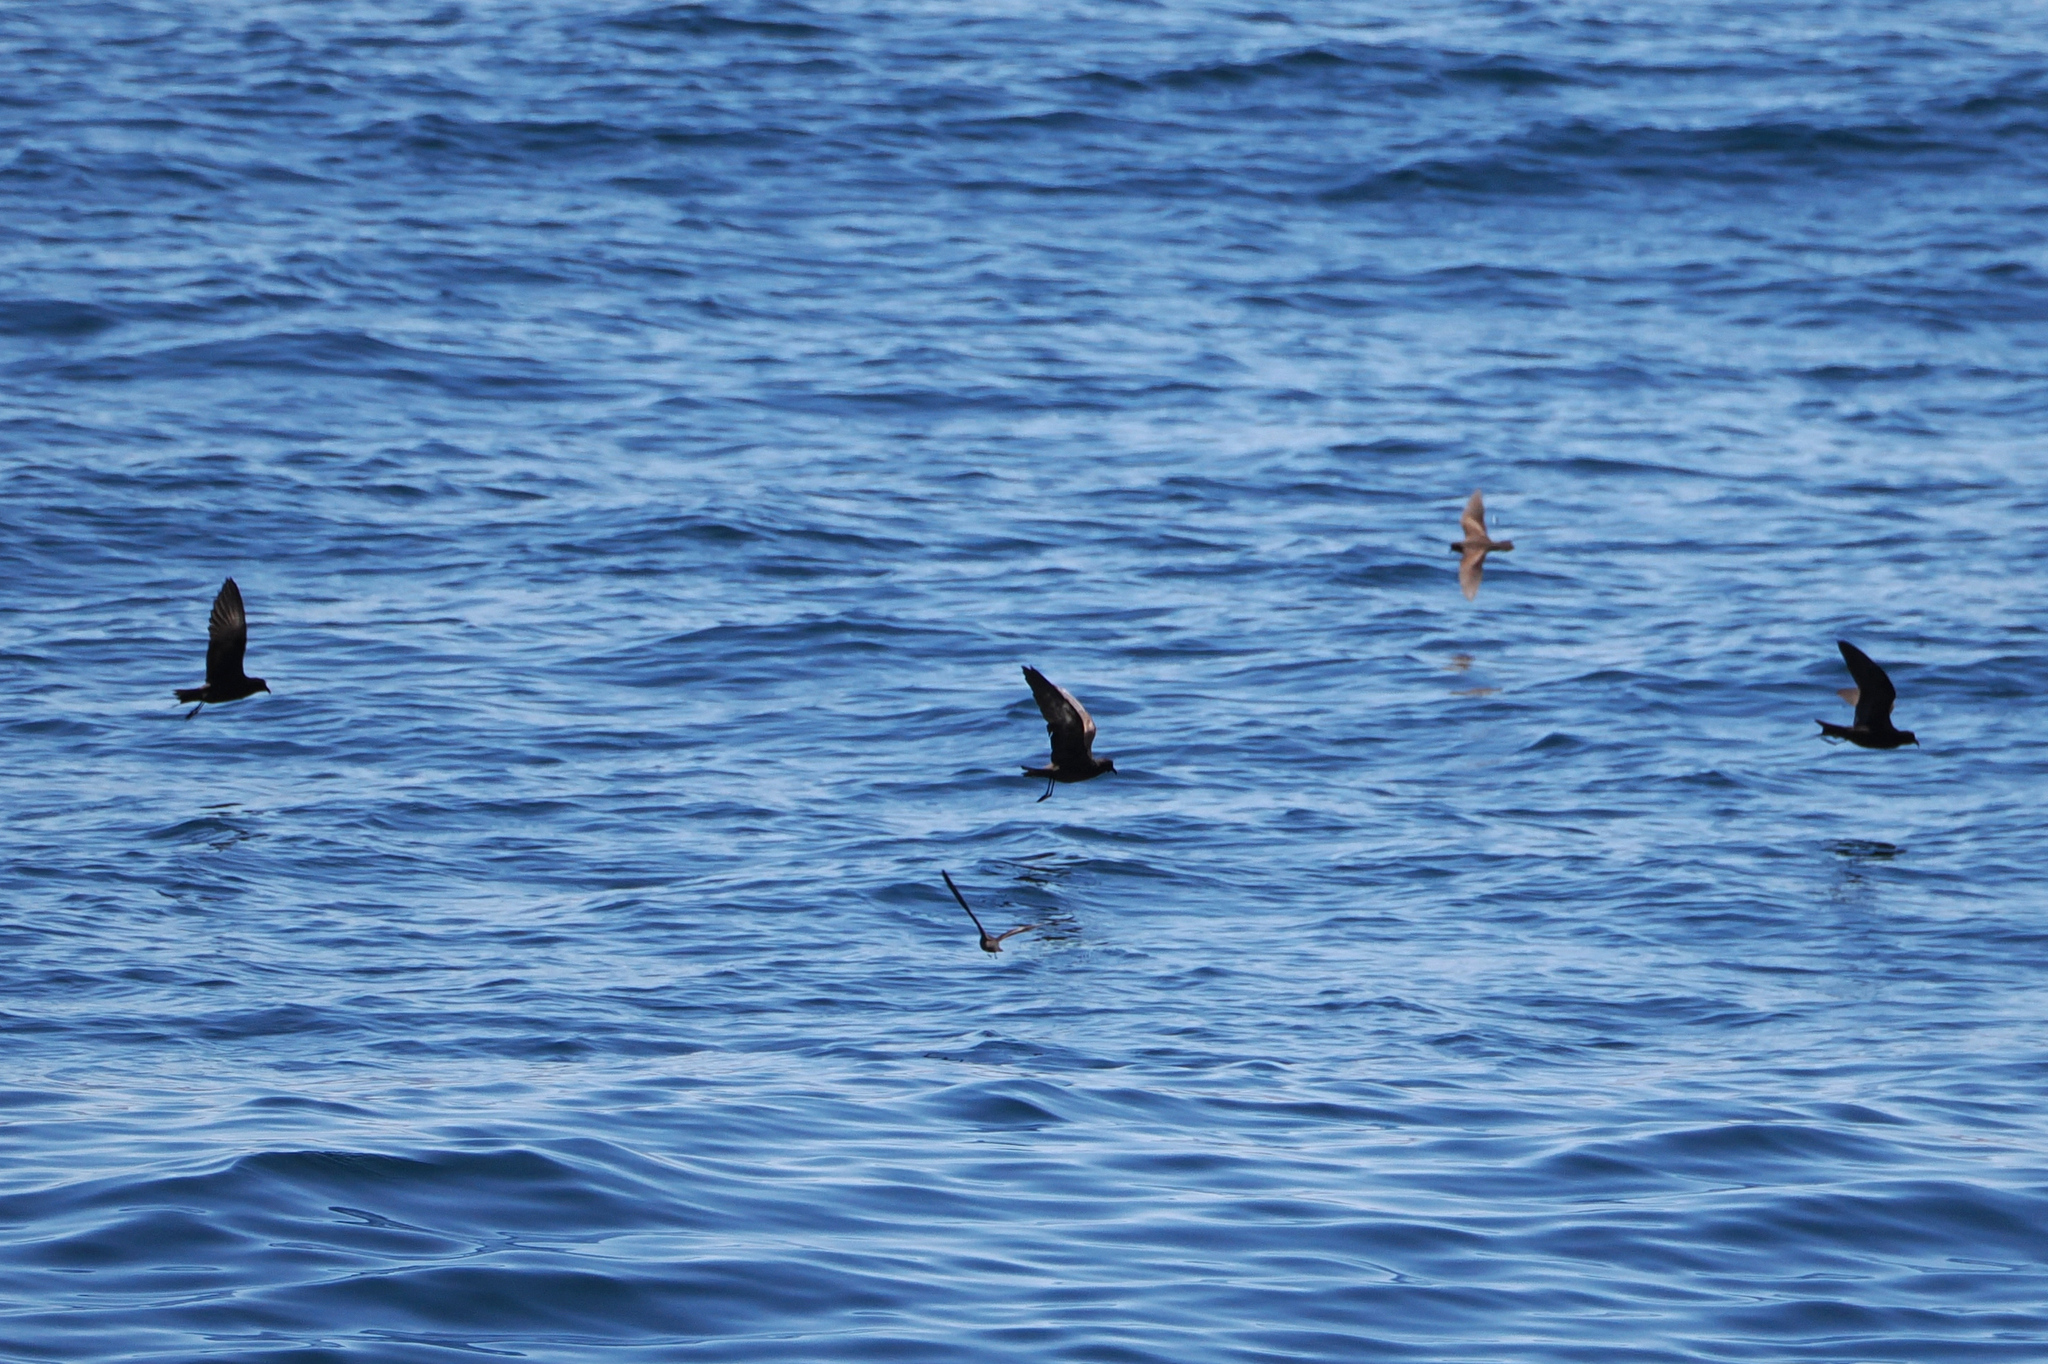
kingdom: Animalia
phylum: Chordata
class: Aves
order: Procellariiformes
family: Hydrobatidae
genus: Hydrobates
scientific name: Hydrobates melania
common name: Black storm petrel
